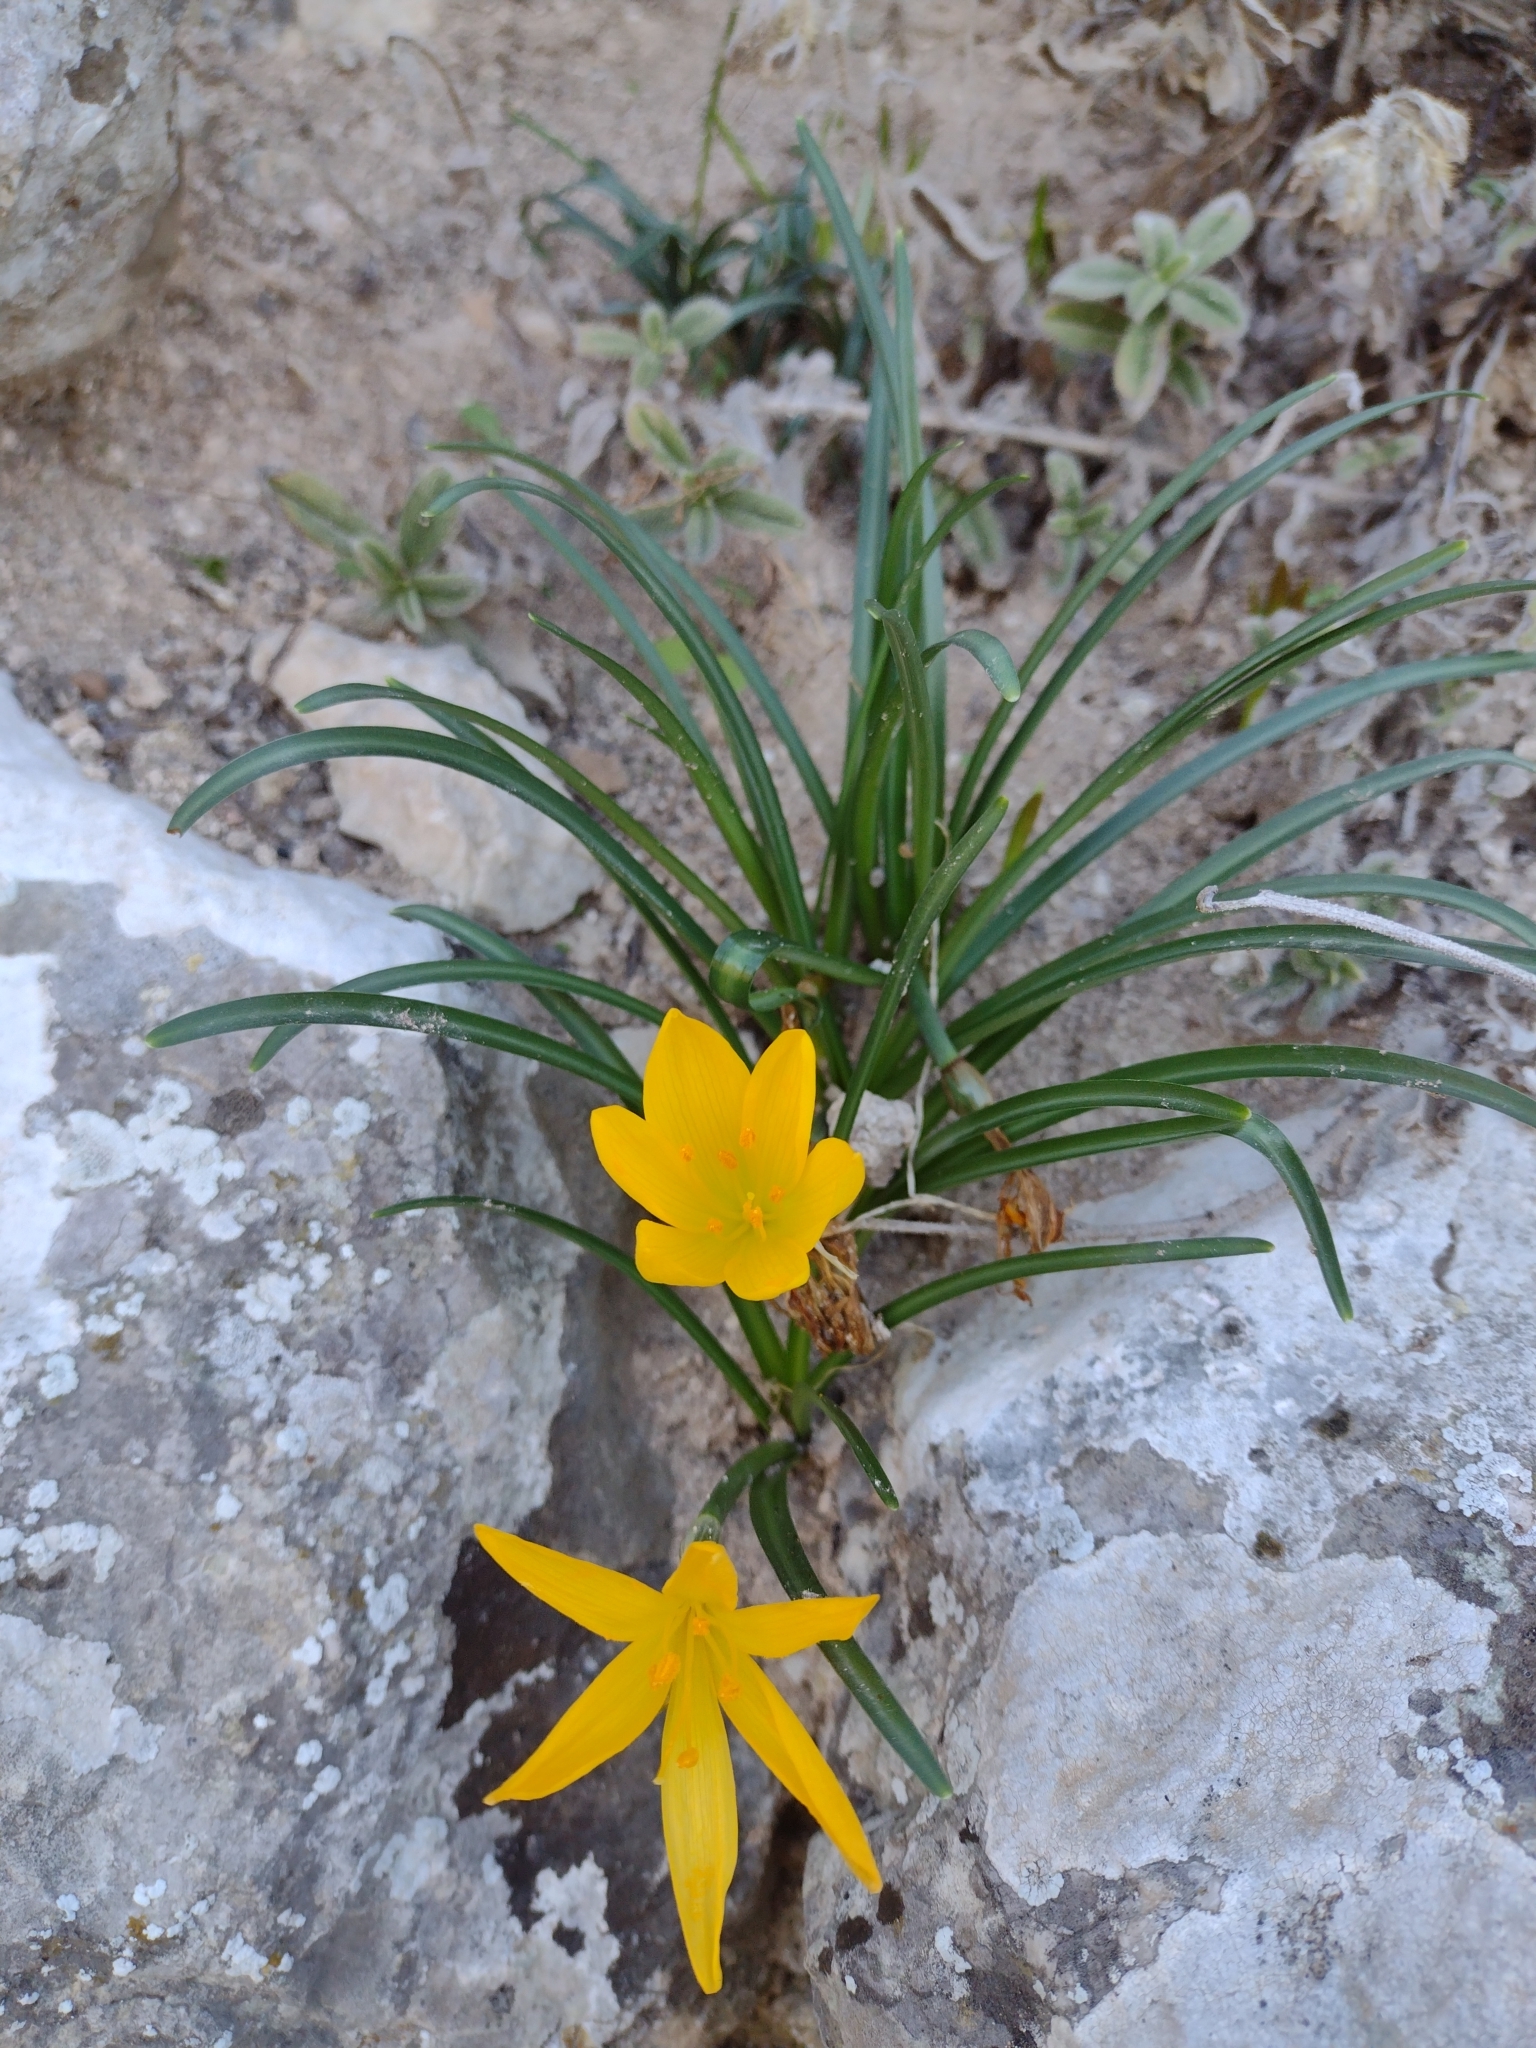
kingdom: Plantae
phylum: Tracheophyta
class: Liliopsida
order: Asparagales
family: Amaryllidaceae
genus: Sternbergia
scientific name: Sternbergia lutea
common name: Winter daffodil
